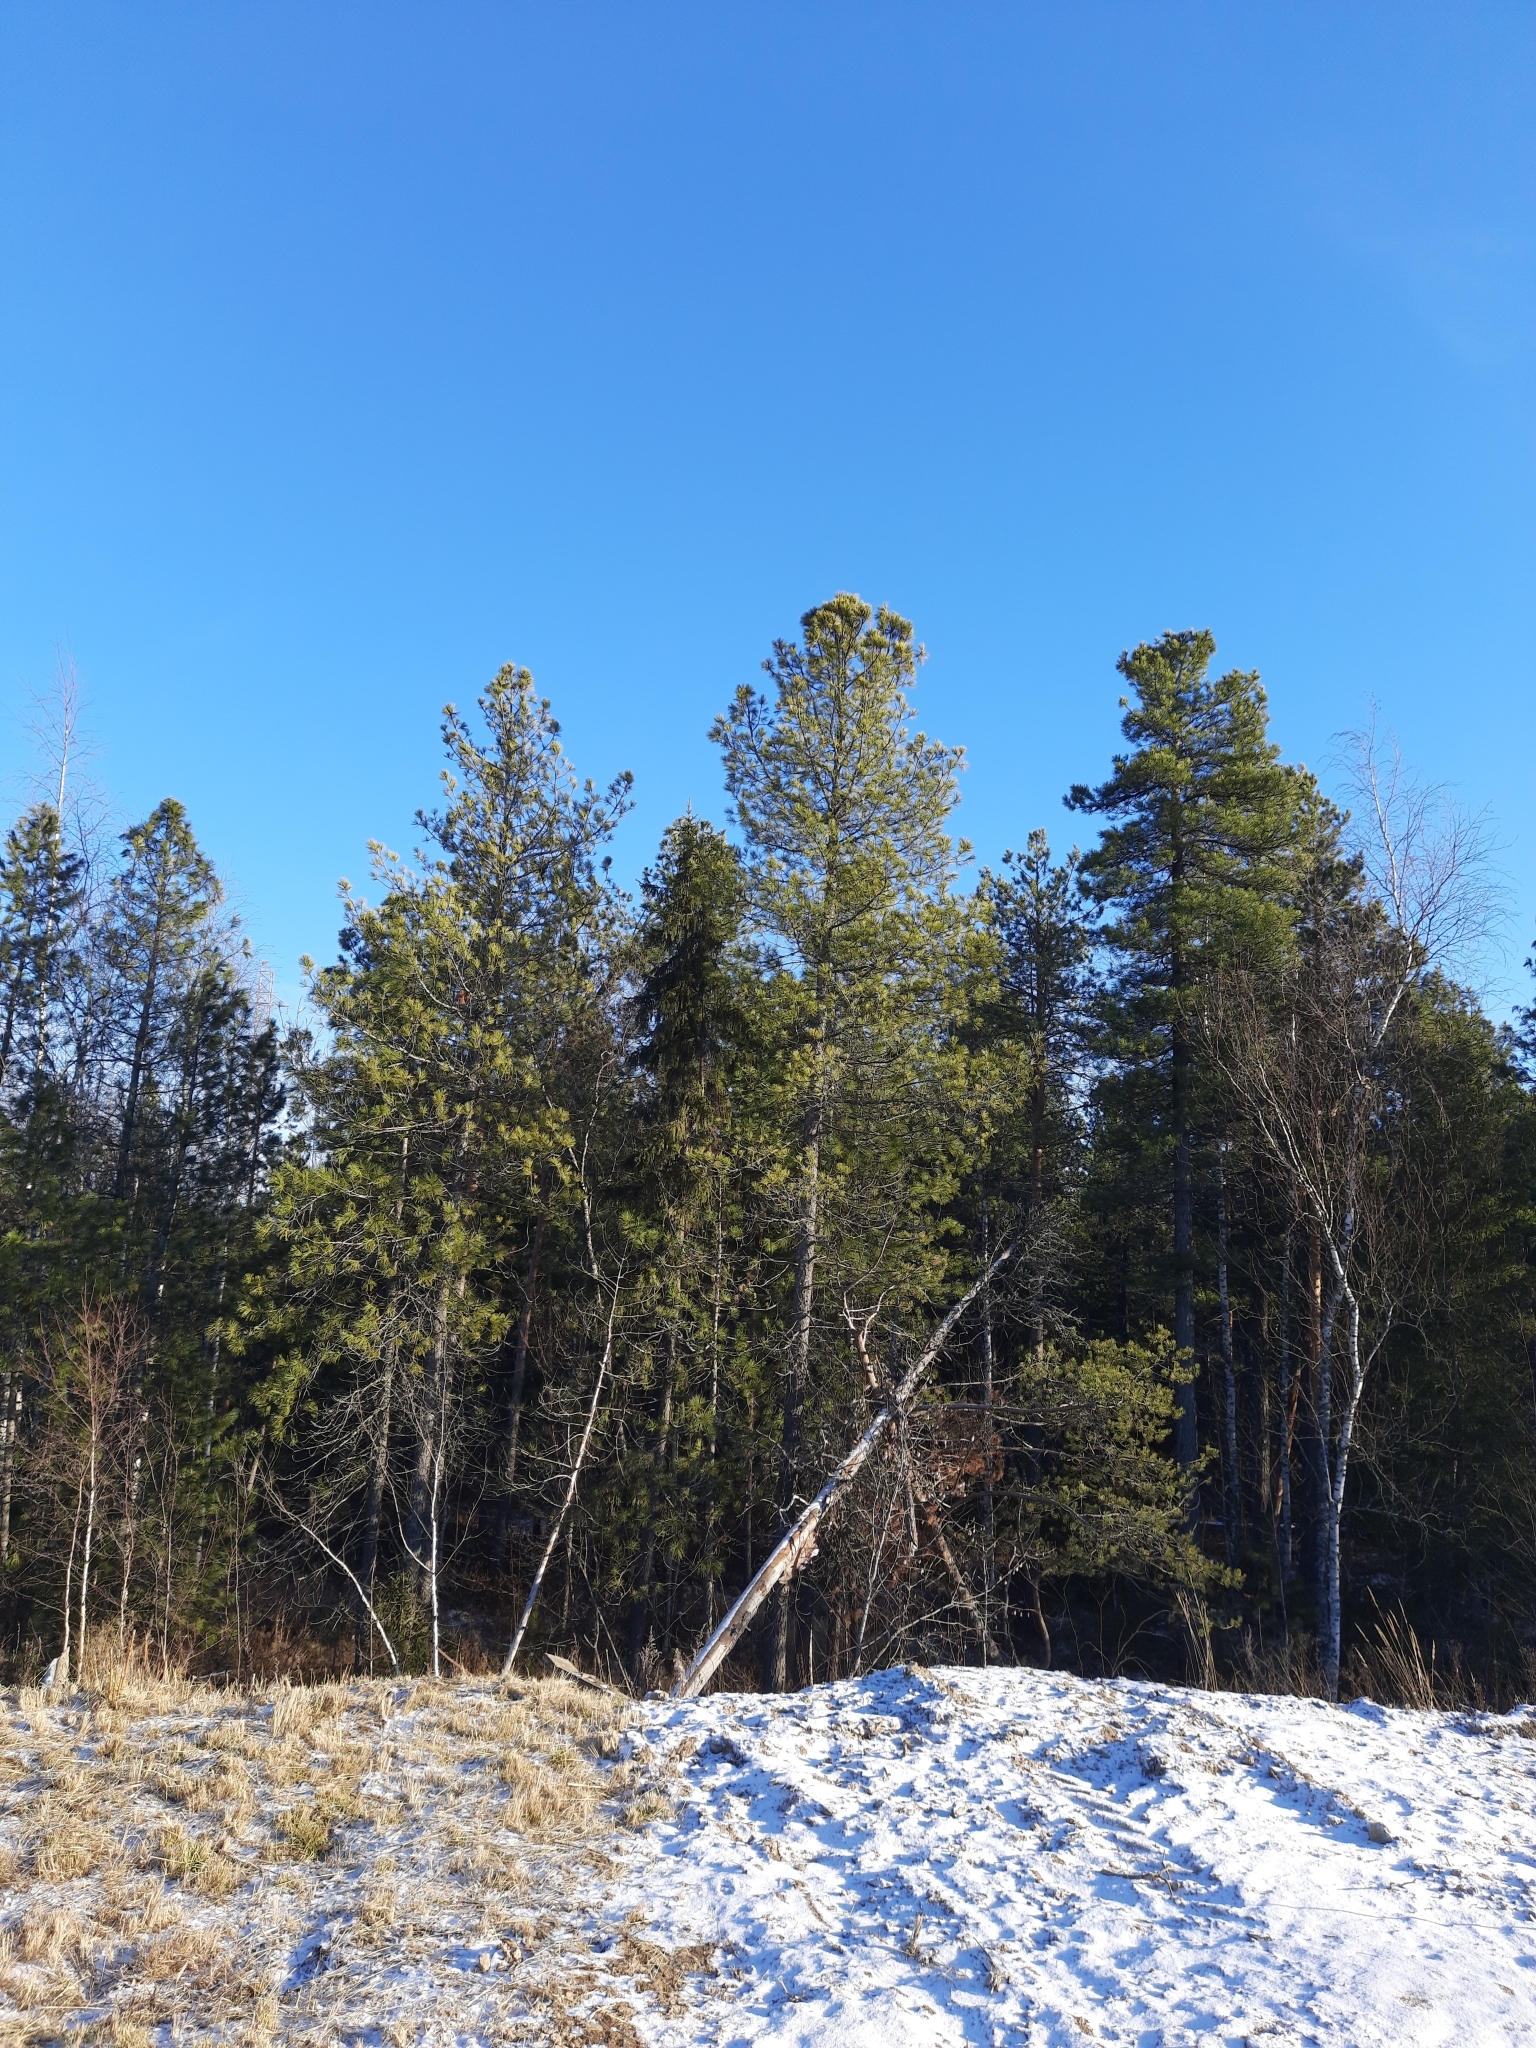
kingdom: Plantae
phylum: Tracheophyta
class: Pinopsida
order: Pinales
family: Pinaceae
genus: Pinus
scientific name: Pinus sylvestris
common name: Scots pine
